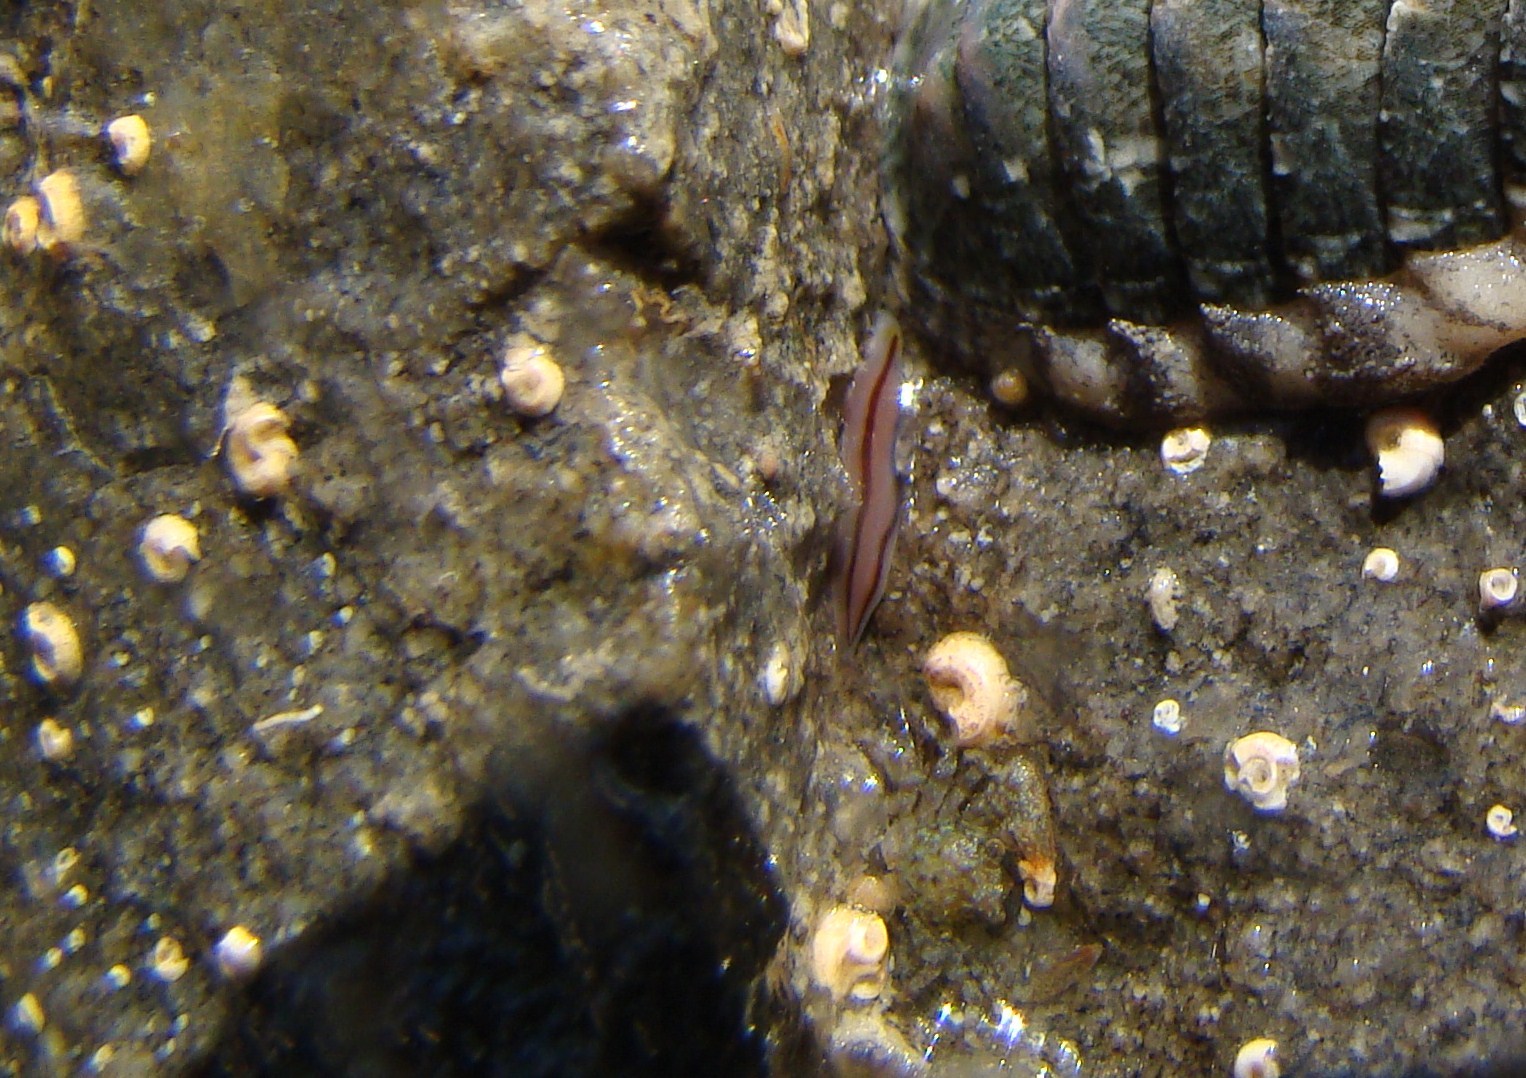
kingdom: Animalia
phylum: Platyhelminthes
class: Turbellaria
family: Chromoplanidae
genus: Chromoplana
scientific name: Chromoplana sirena
